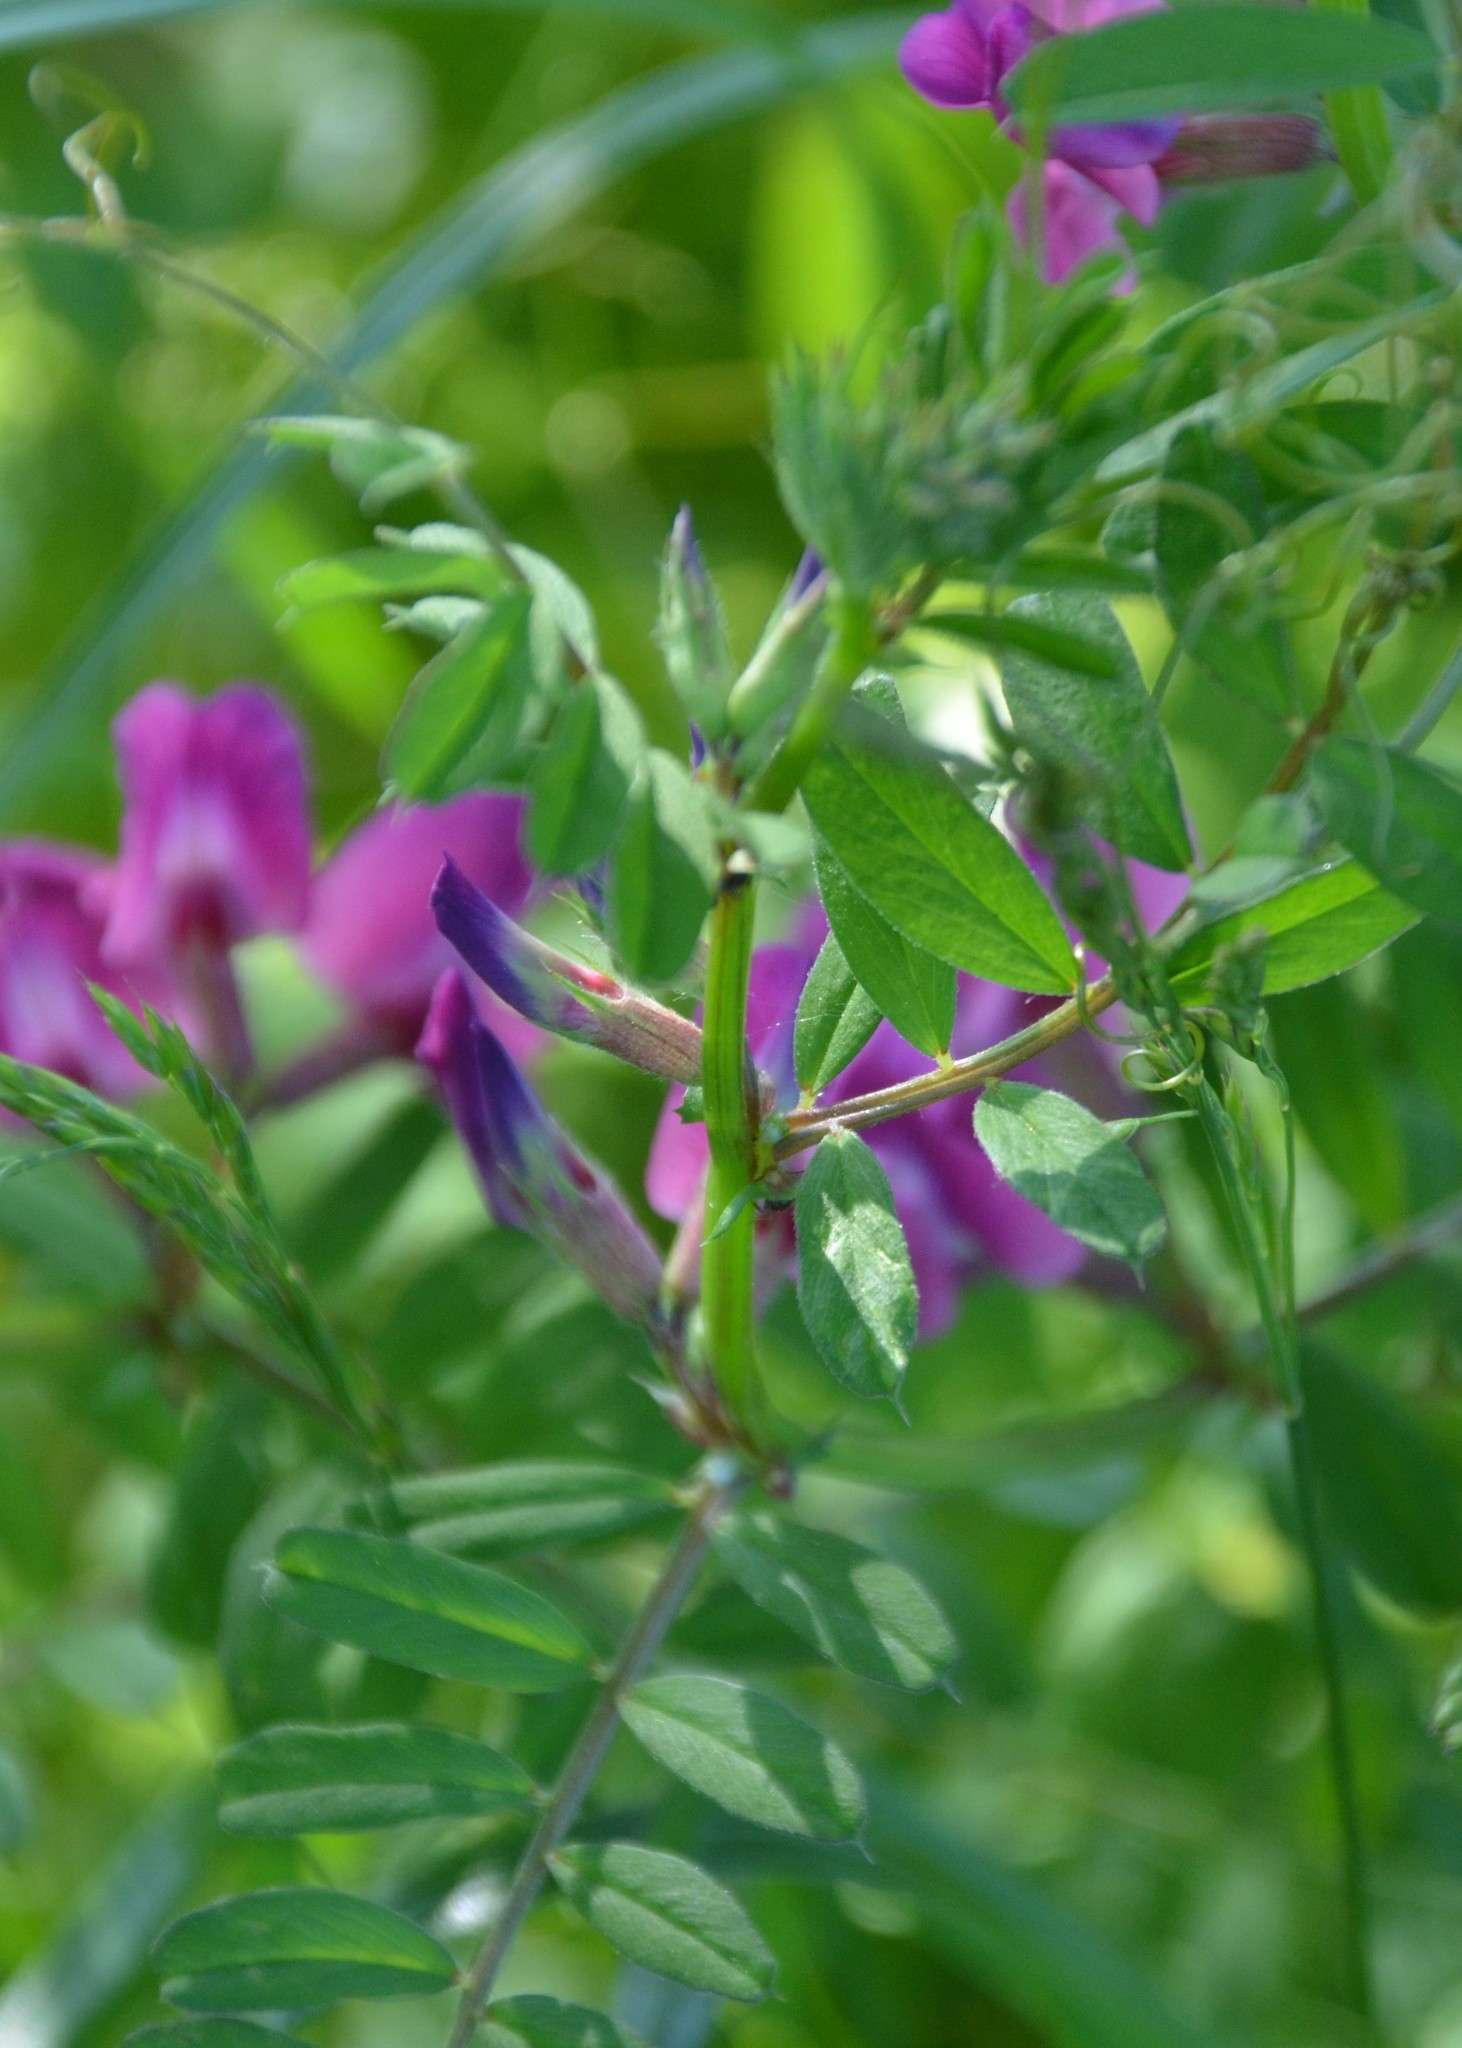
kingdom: Plantae
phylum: Tracheophyta
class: Magnoliopsida
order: Fabales
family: Fabaceae
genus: Vicia
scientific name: Vicia sativa
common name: Garden vetch
